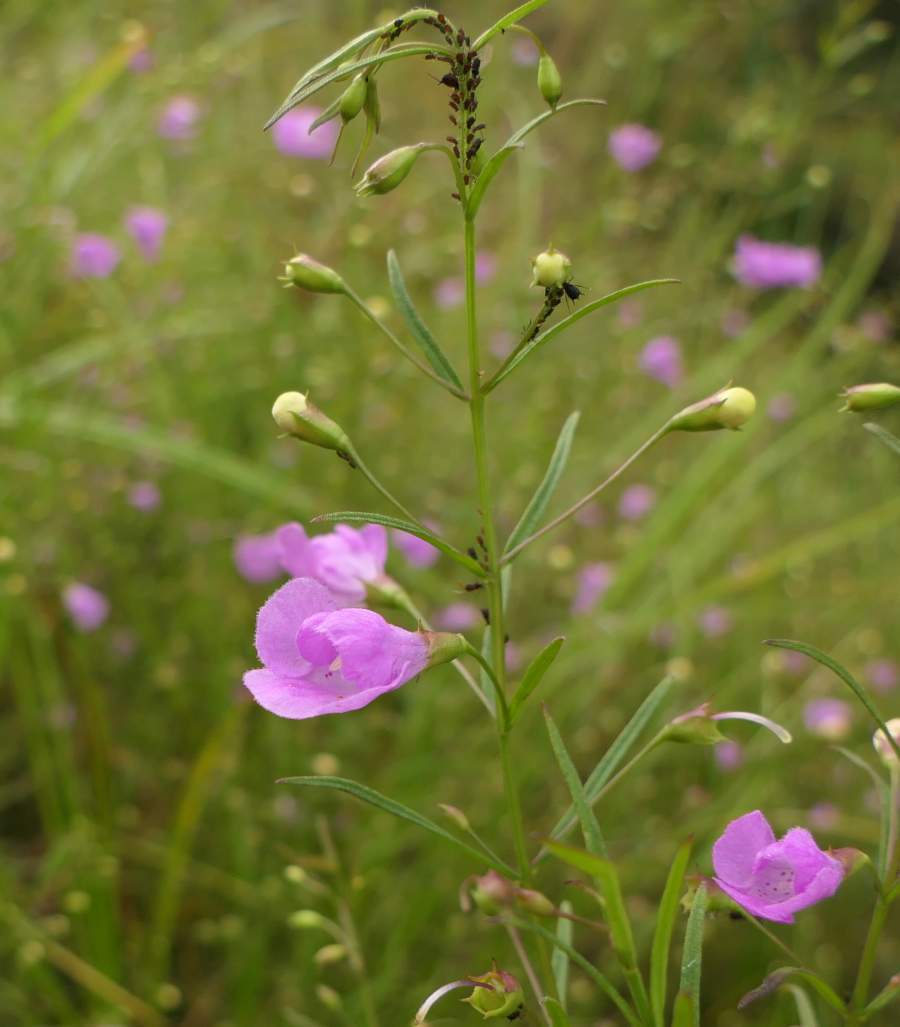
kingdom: Plantae
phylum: Tracheophyta
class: Magnoliopsida
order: Lamiales
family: Orobanchaceae
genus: Agalinis
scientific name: Agalinis tenuifolia
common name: Slender agalinis
